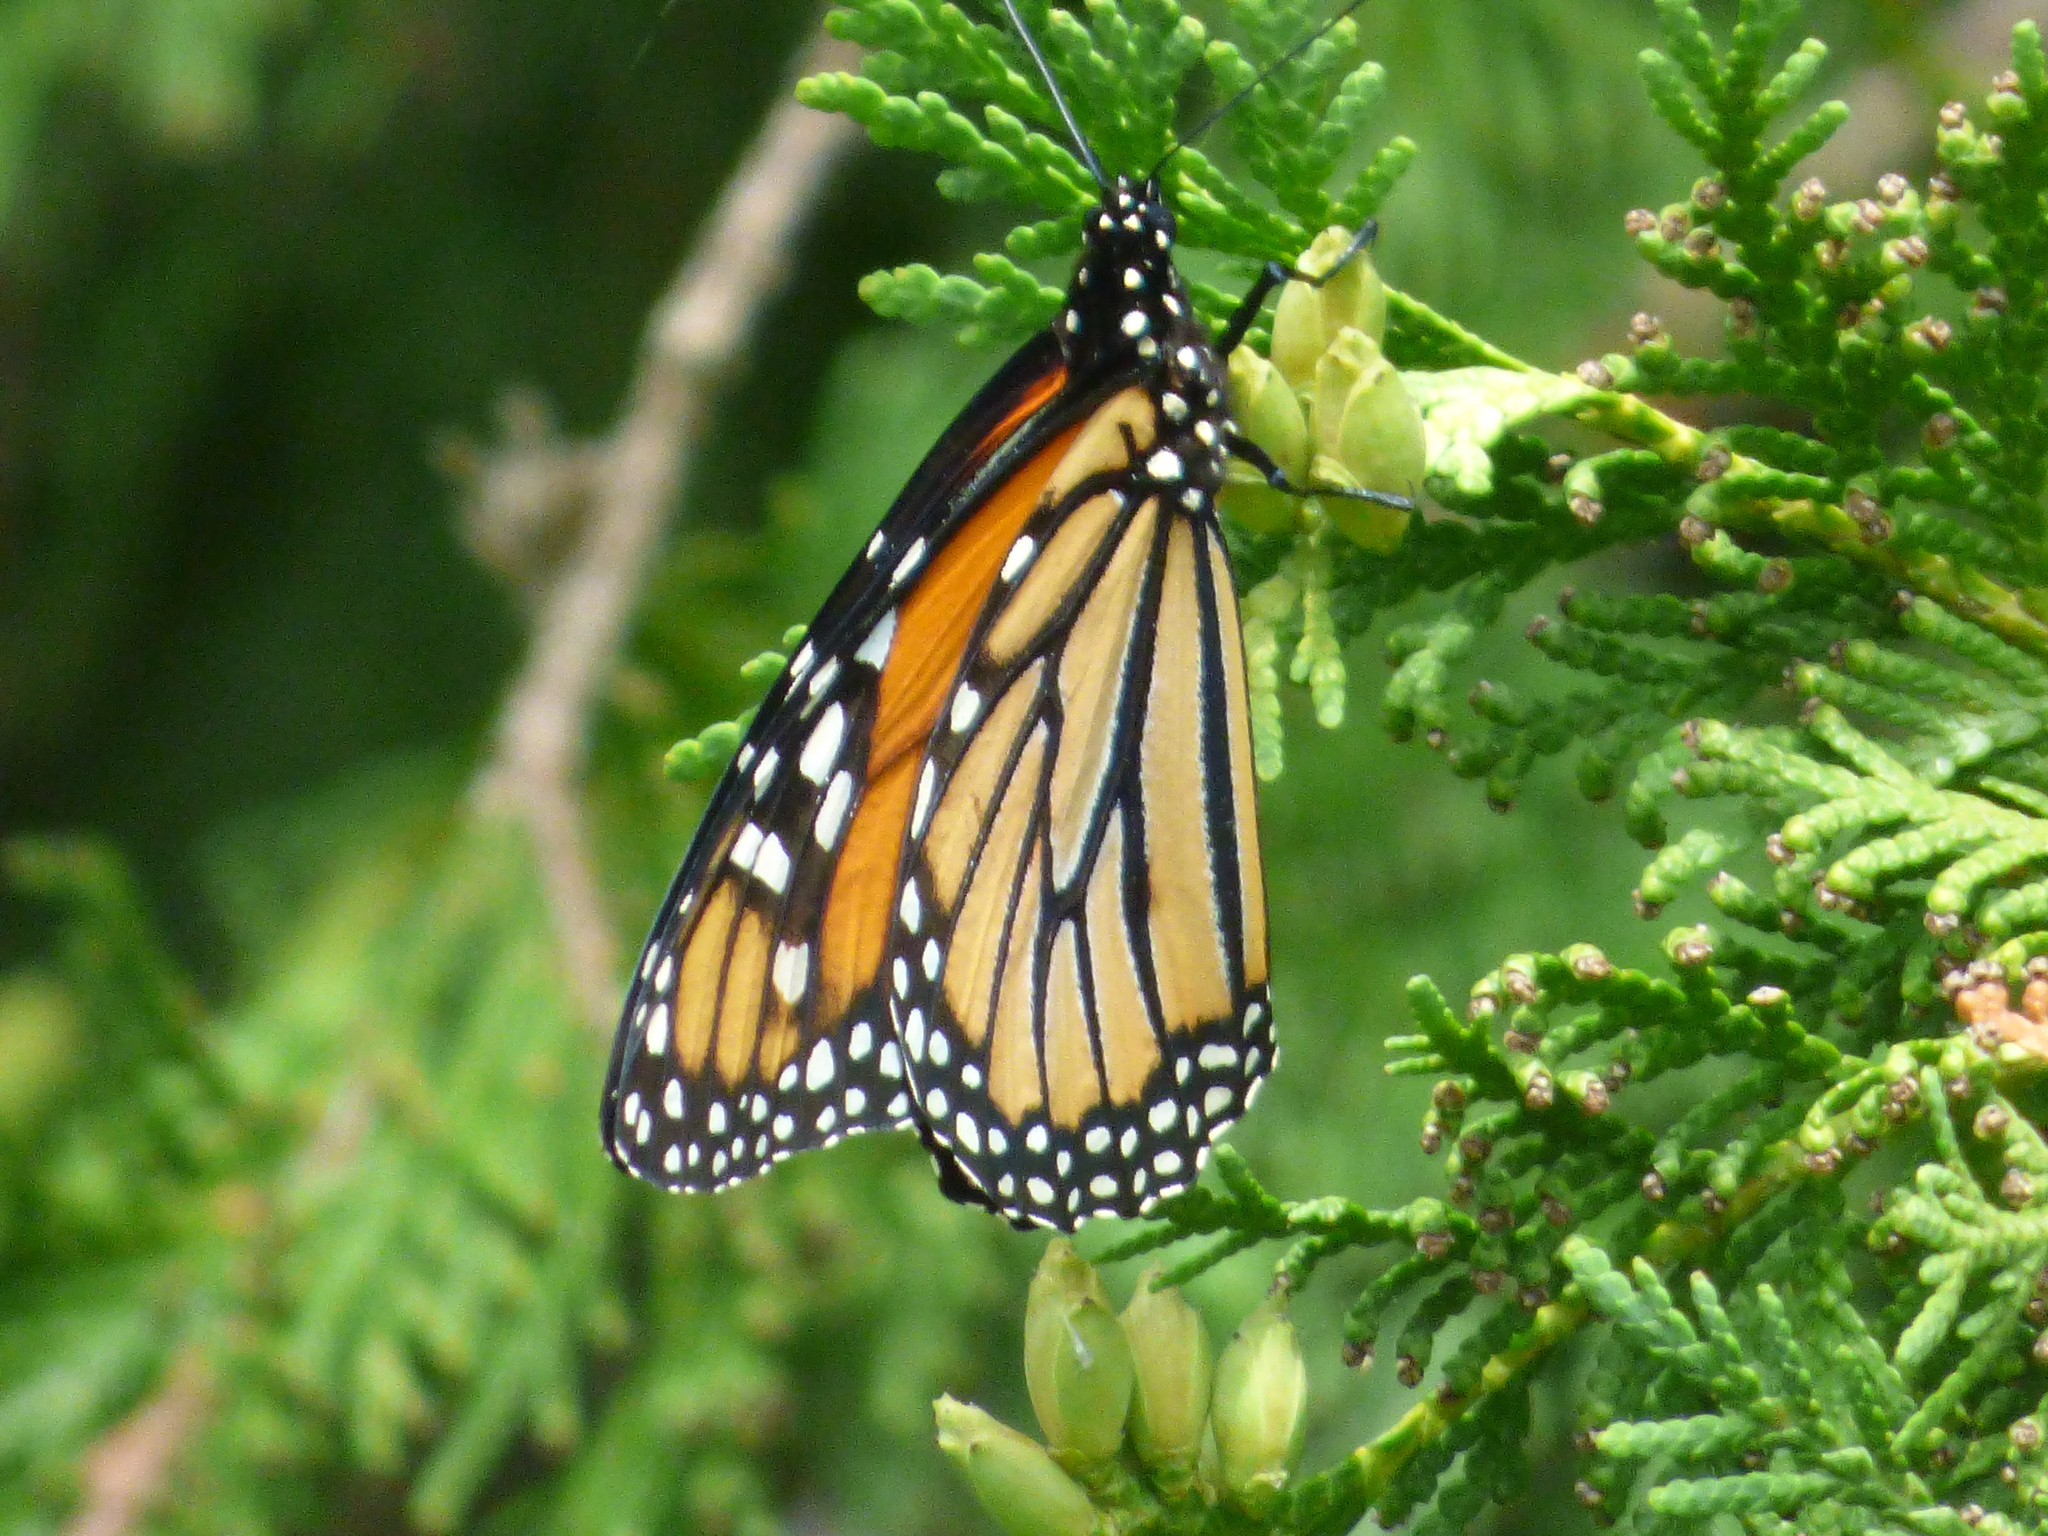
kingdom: Animalia
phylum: Arthropoda
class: Insecta
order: Lepidoptera
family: Nymphalidae
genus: Danaus
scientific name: Danaus plexippus
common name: Monarch
